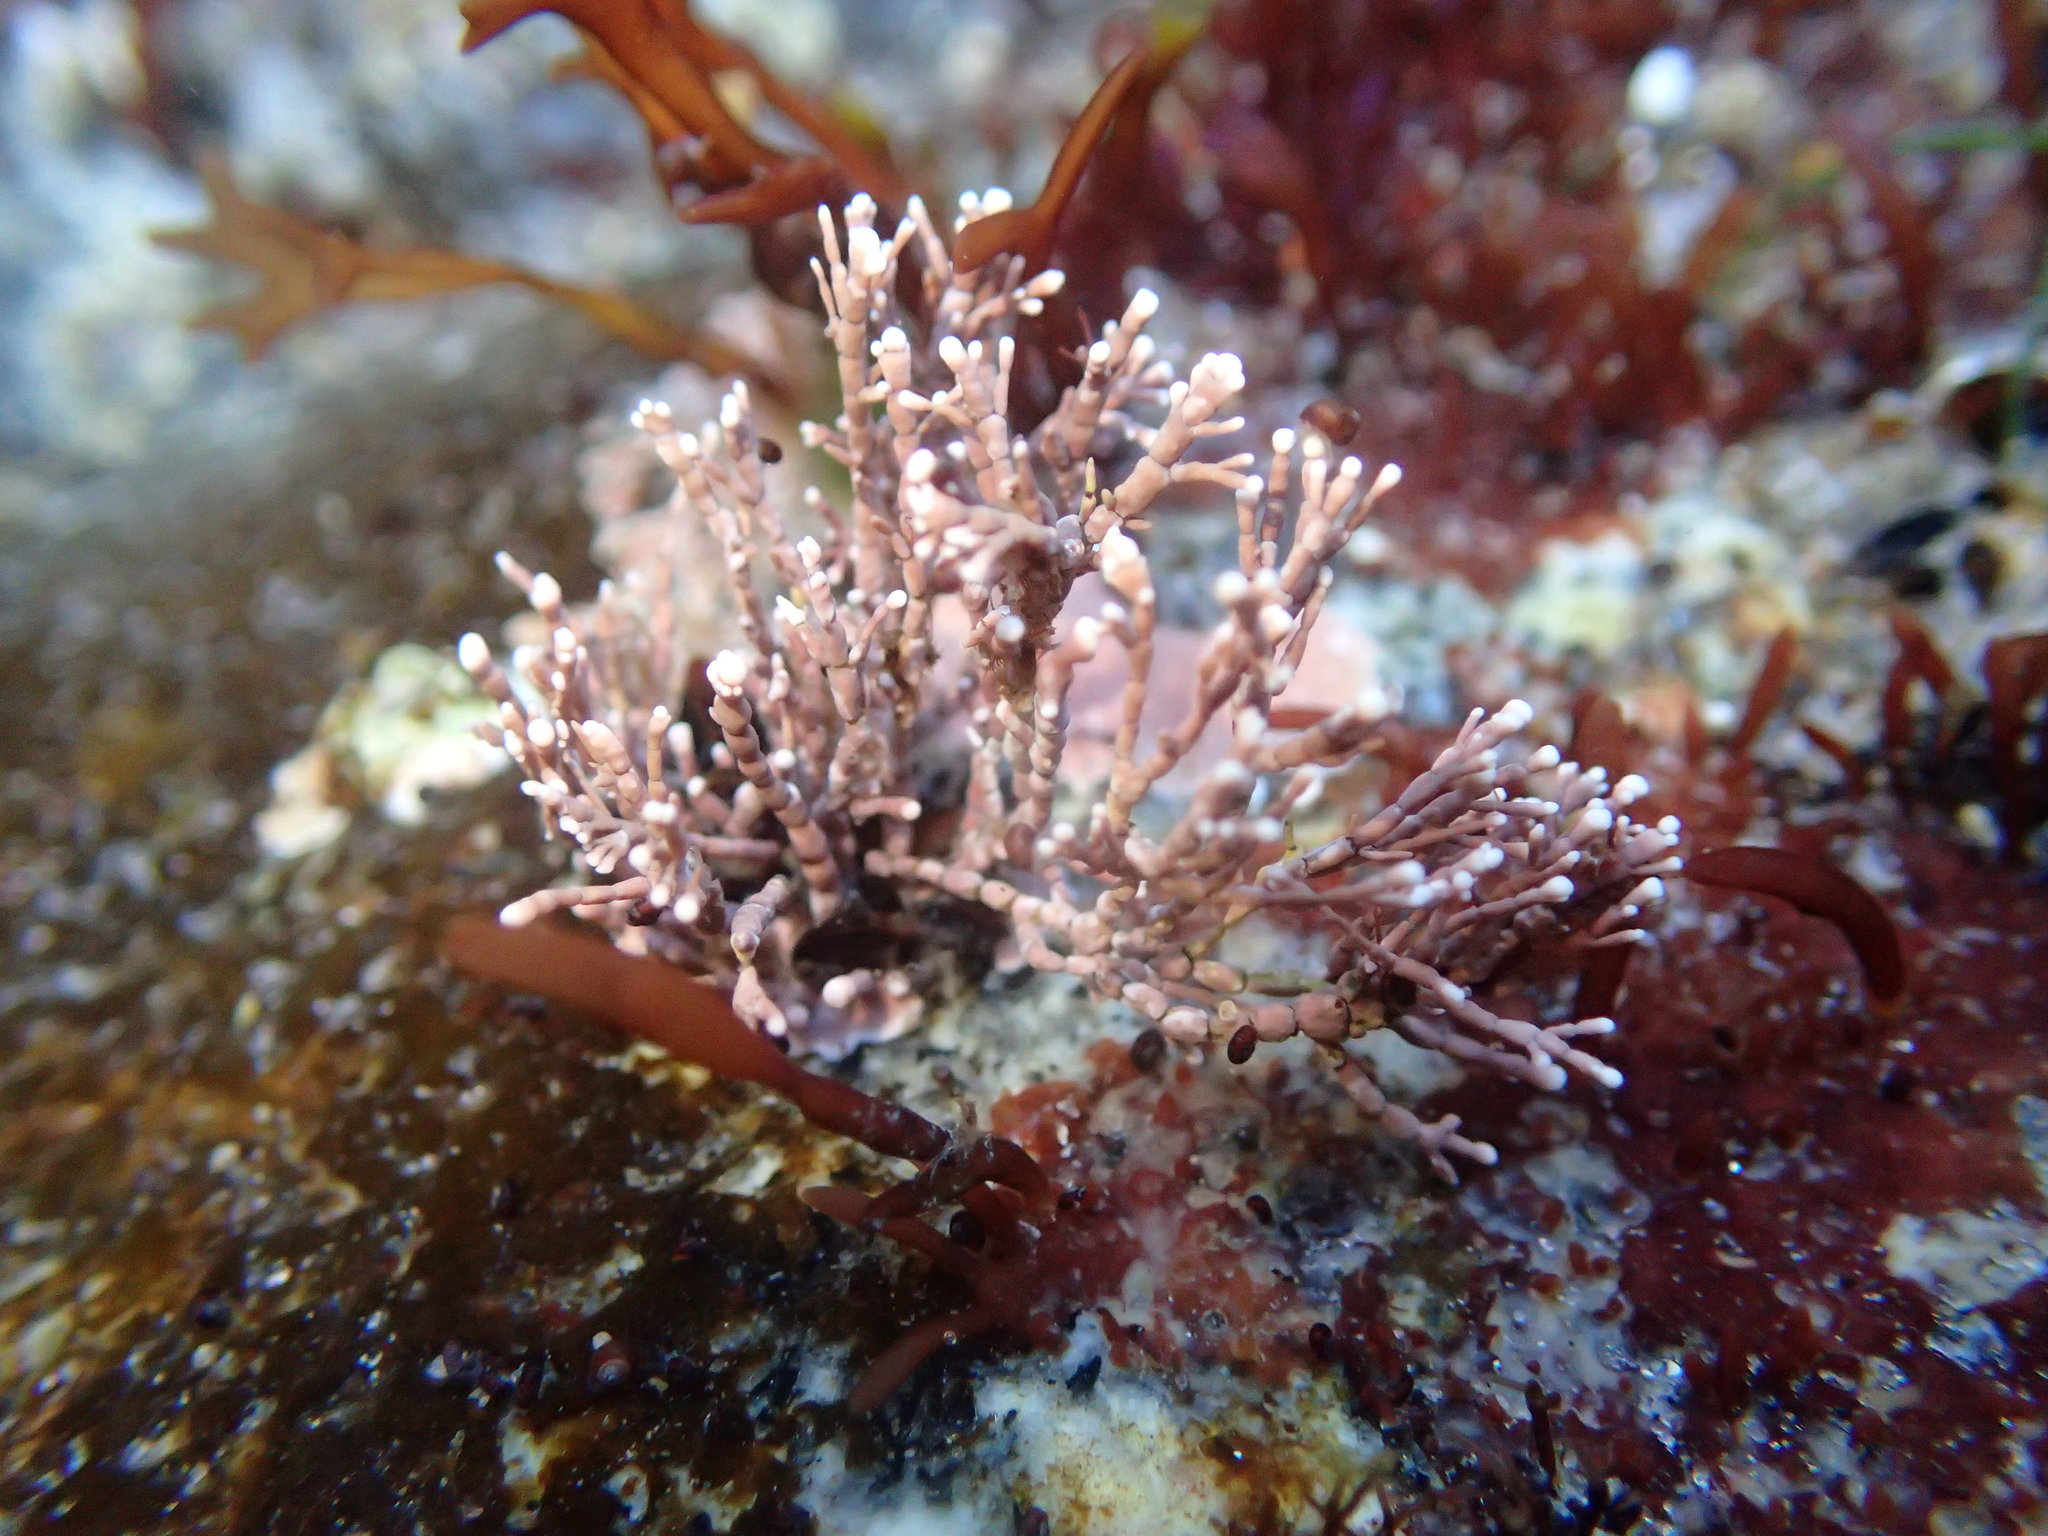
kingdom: Plantae
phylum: Rhodophyta
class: Florideophyceae
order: Corallinales
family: Corallinaceae
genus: Corallina
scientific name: Corallina officinalis
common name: Coral weed
